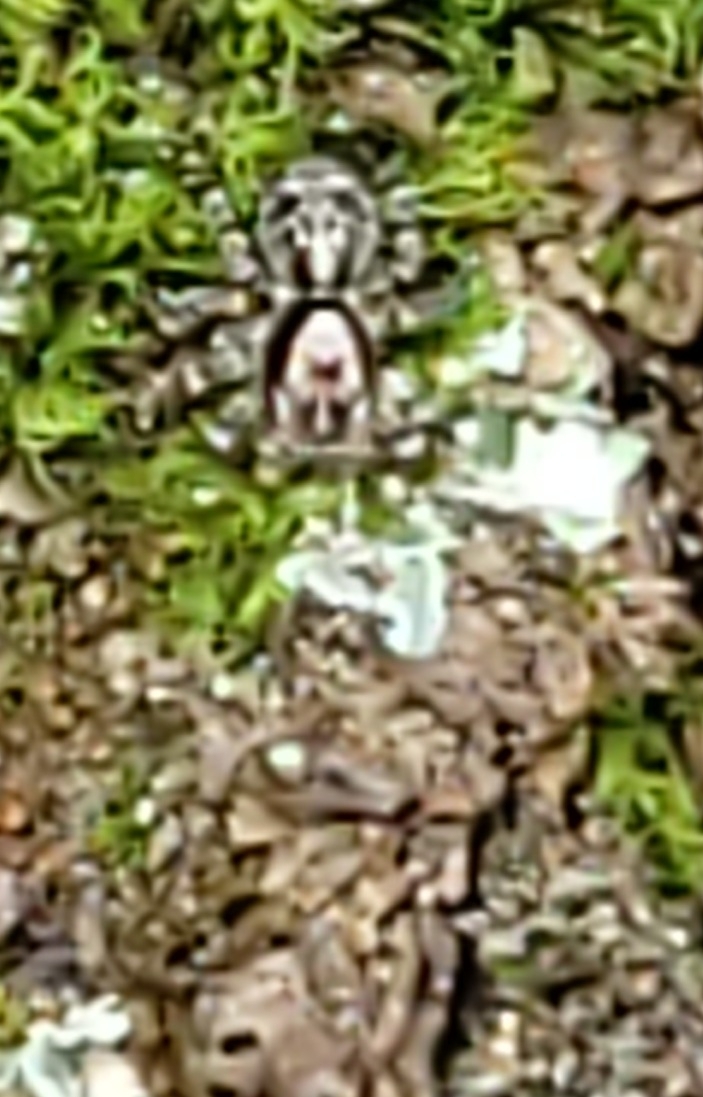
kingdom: Animalia
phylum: Arthropoda
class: Arachnida
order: Araneae
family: Salticidae
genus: Naphrys
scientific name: Naphrys pulex
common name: Flea jumping spider
